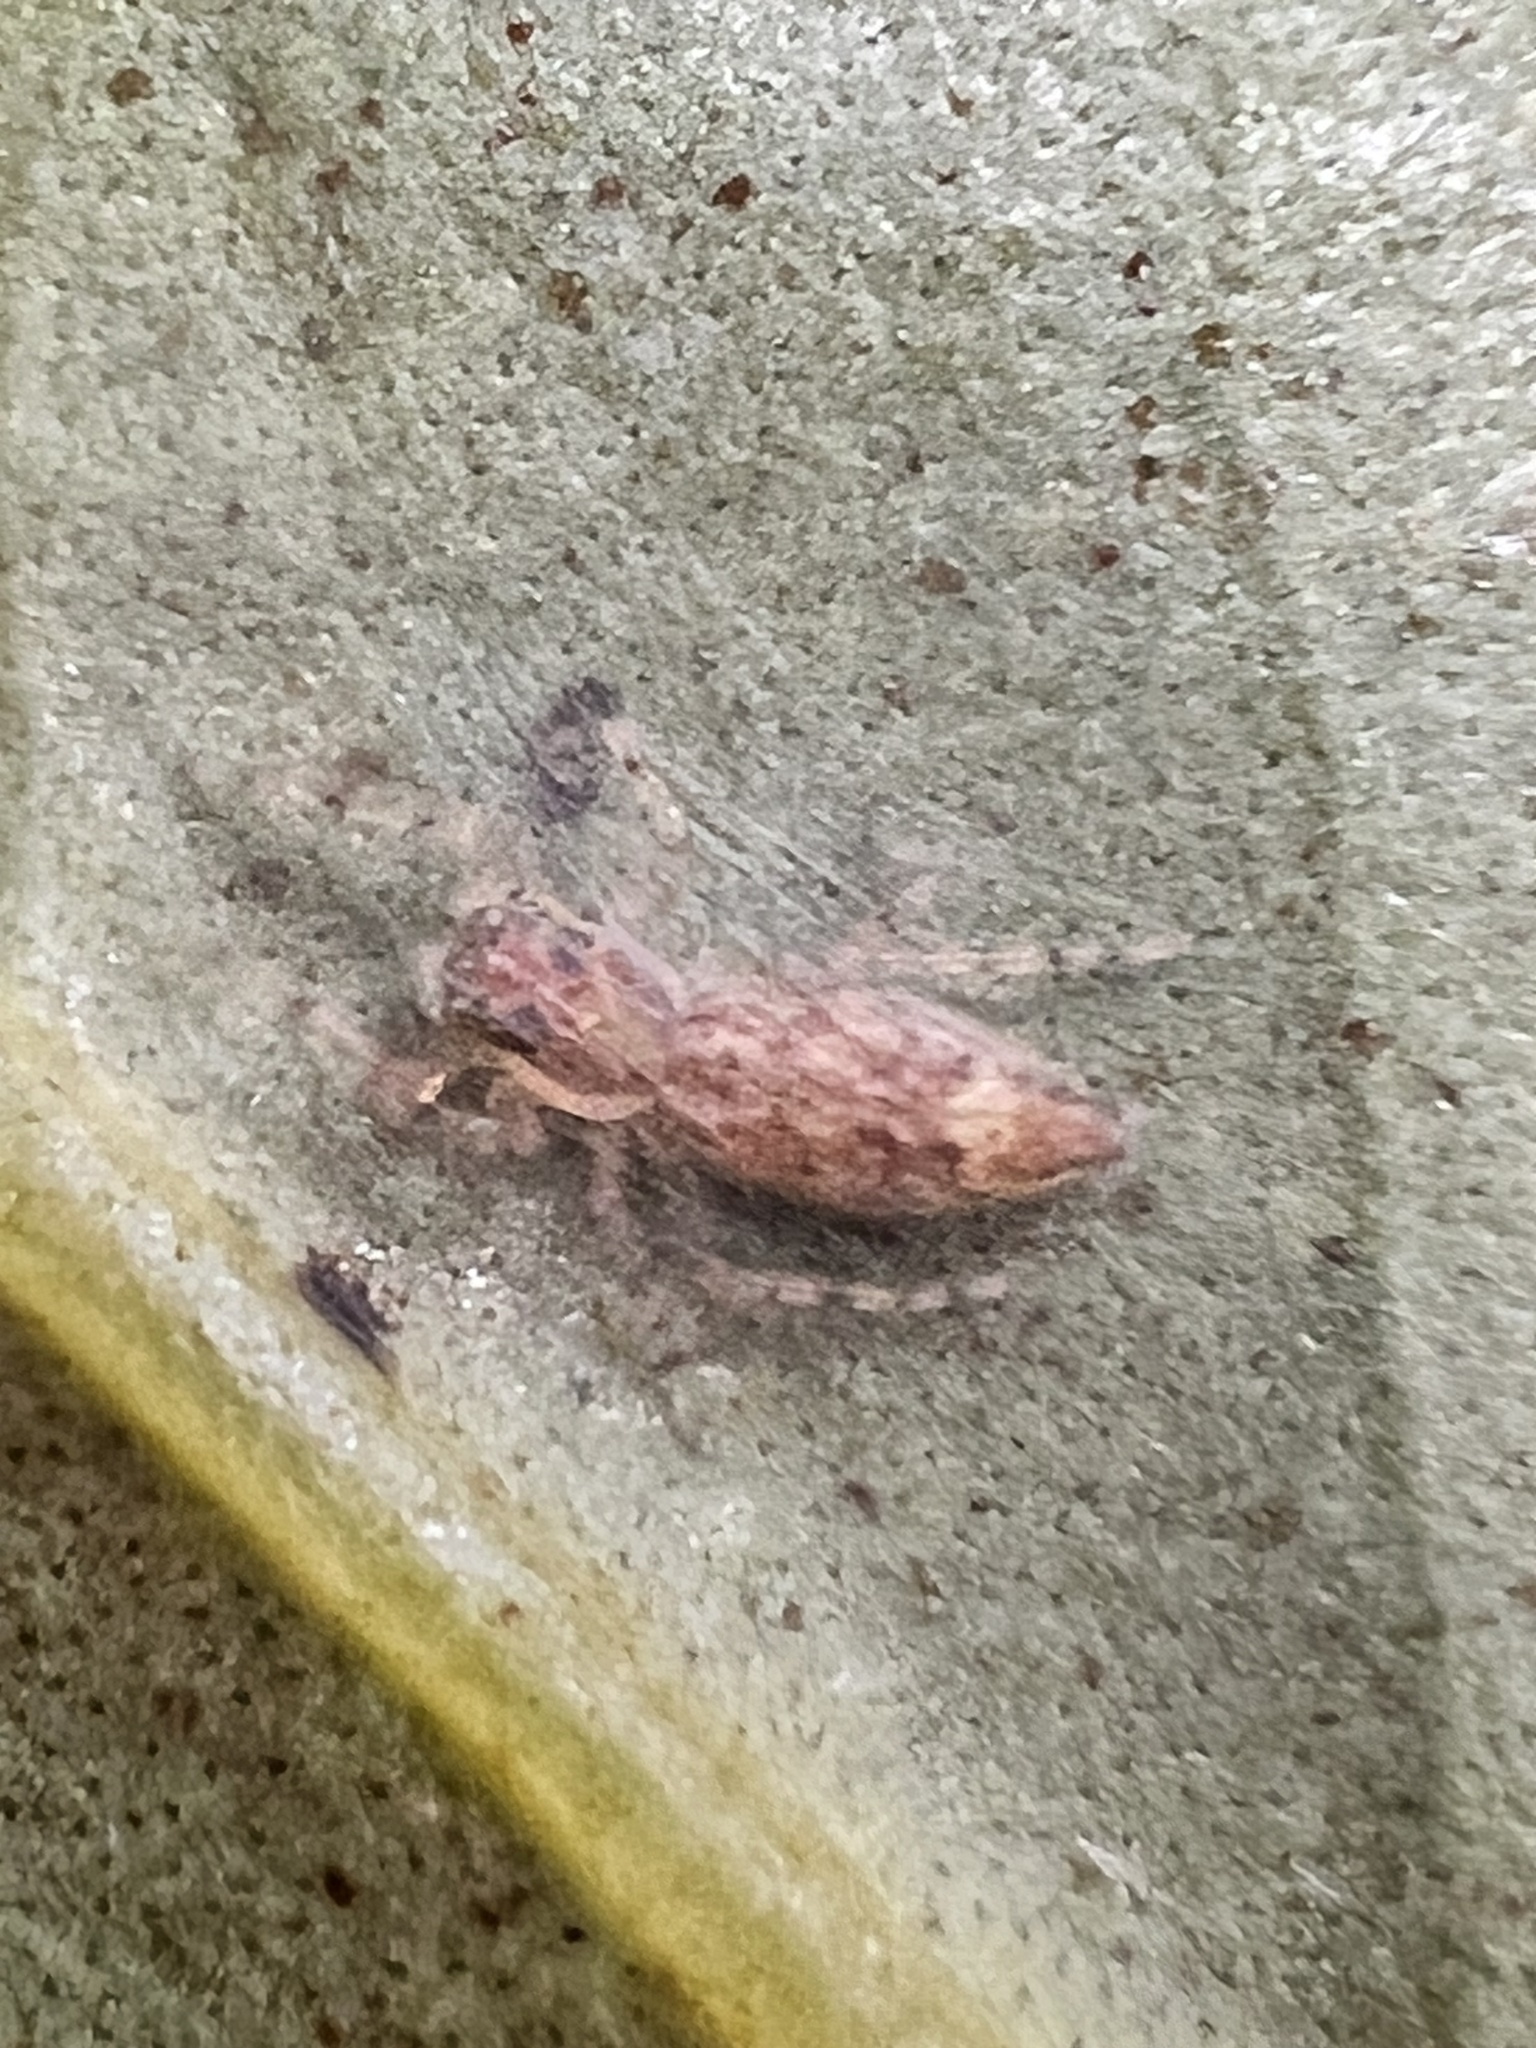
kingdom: Animalia
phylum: Arthropoda
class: Arachnida
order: Araneae
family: Salticidae
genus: Helpis
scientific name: Helpis minitabunda
